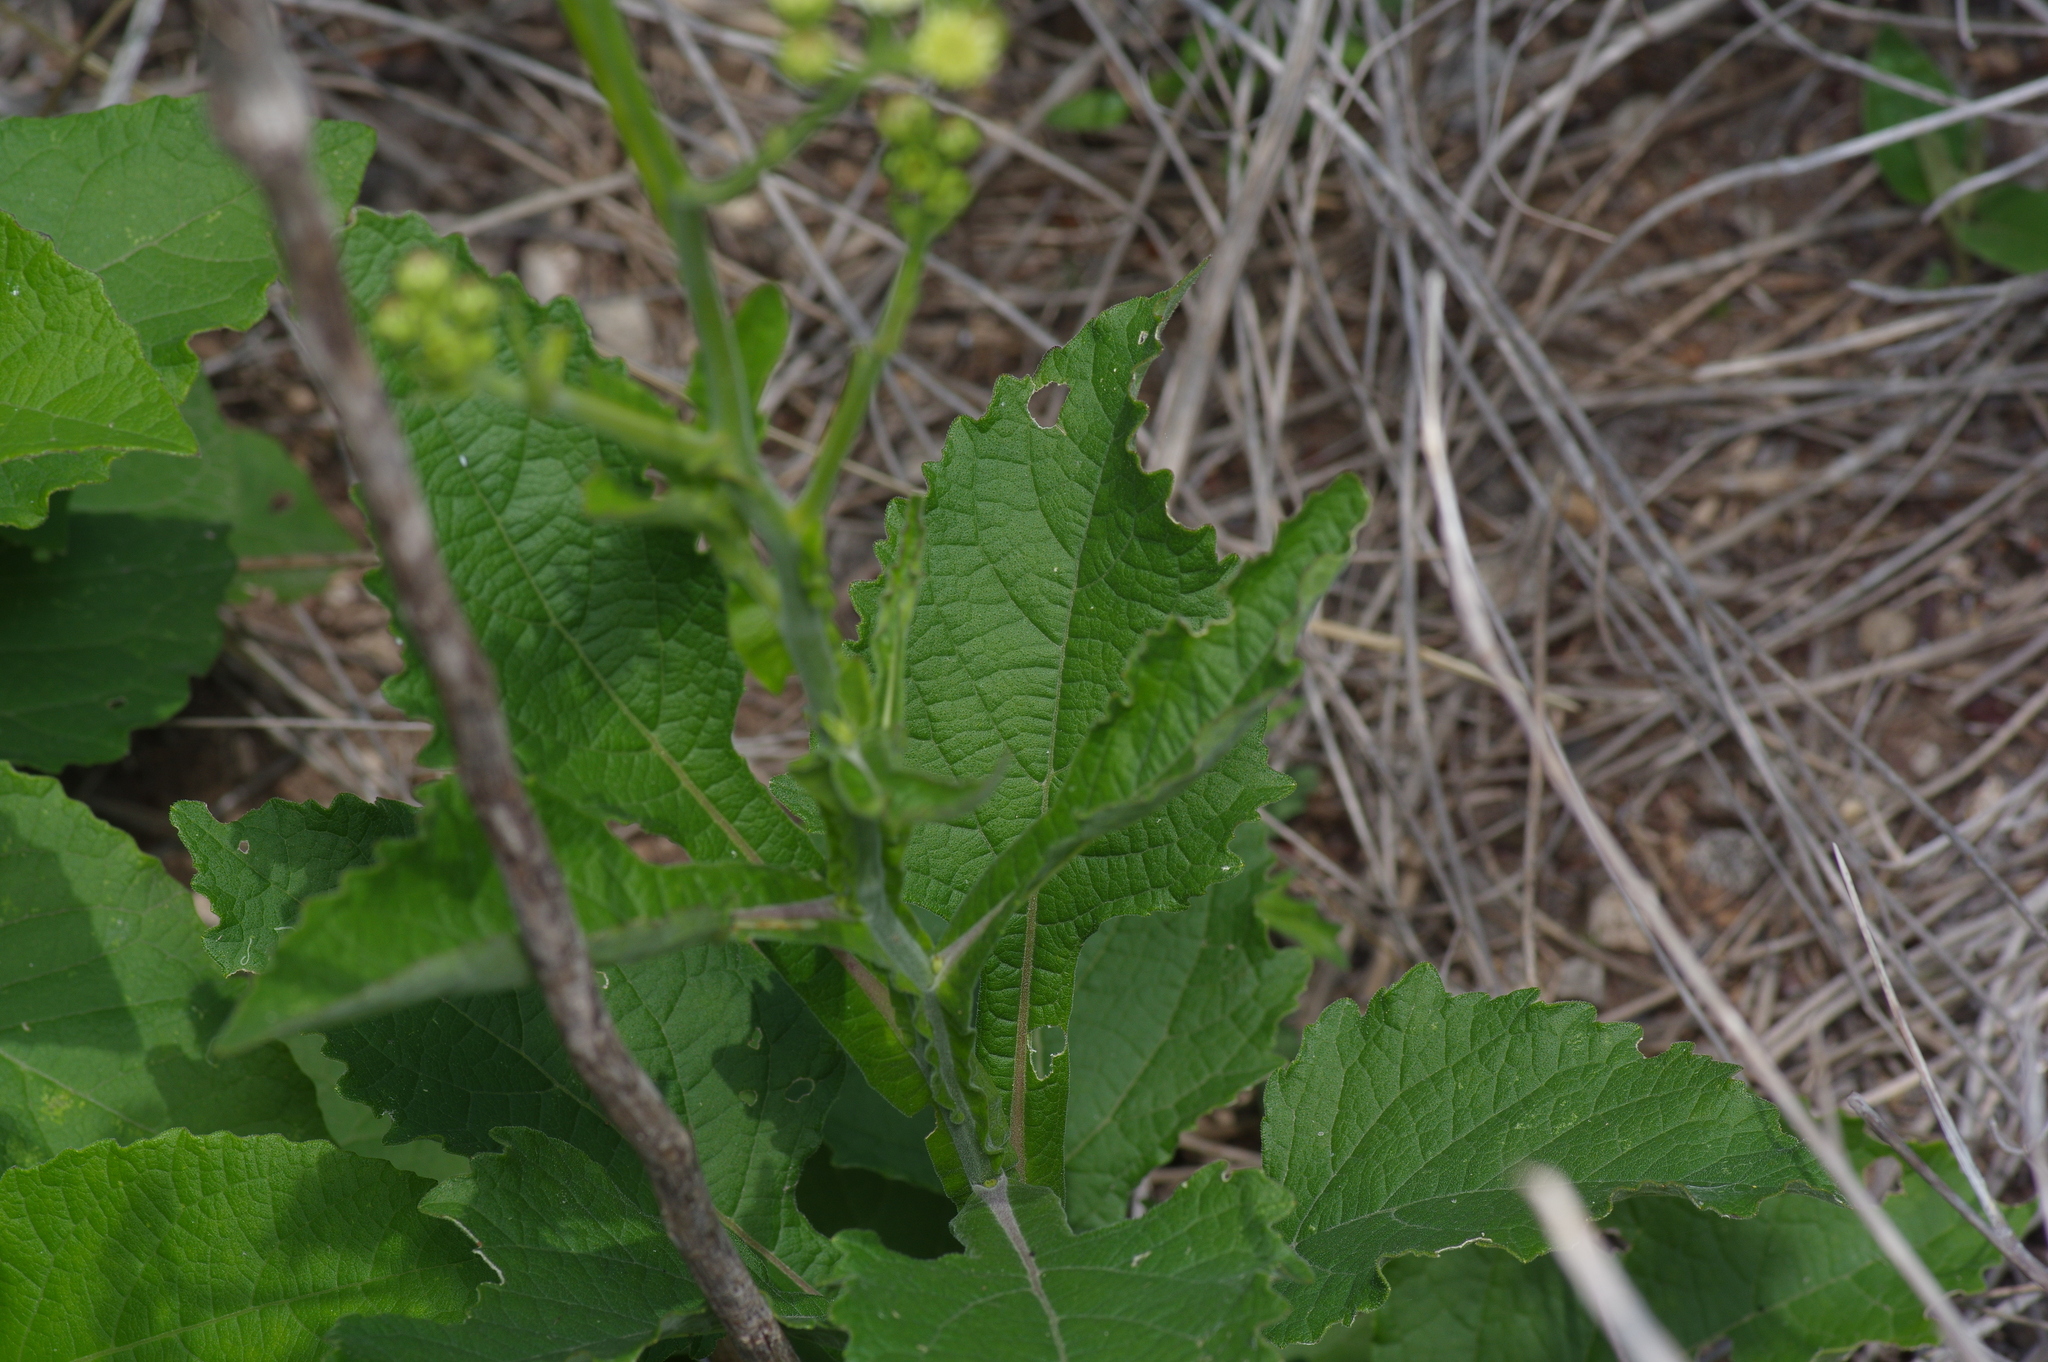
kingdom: Plantae
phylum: Tracheophyta
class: Magnoliopsida
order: Asterales
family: Asteraceae
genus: Verbesina
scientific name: Verbesina microptera
